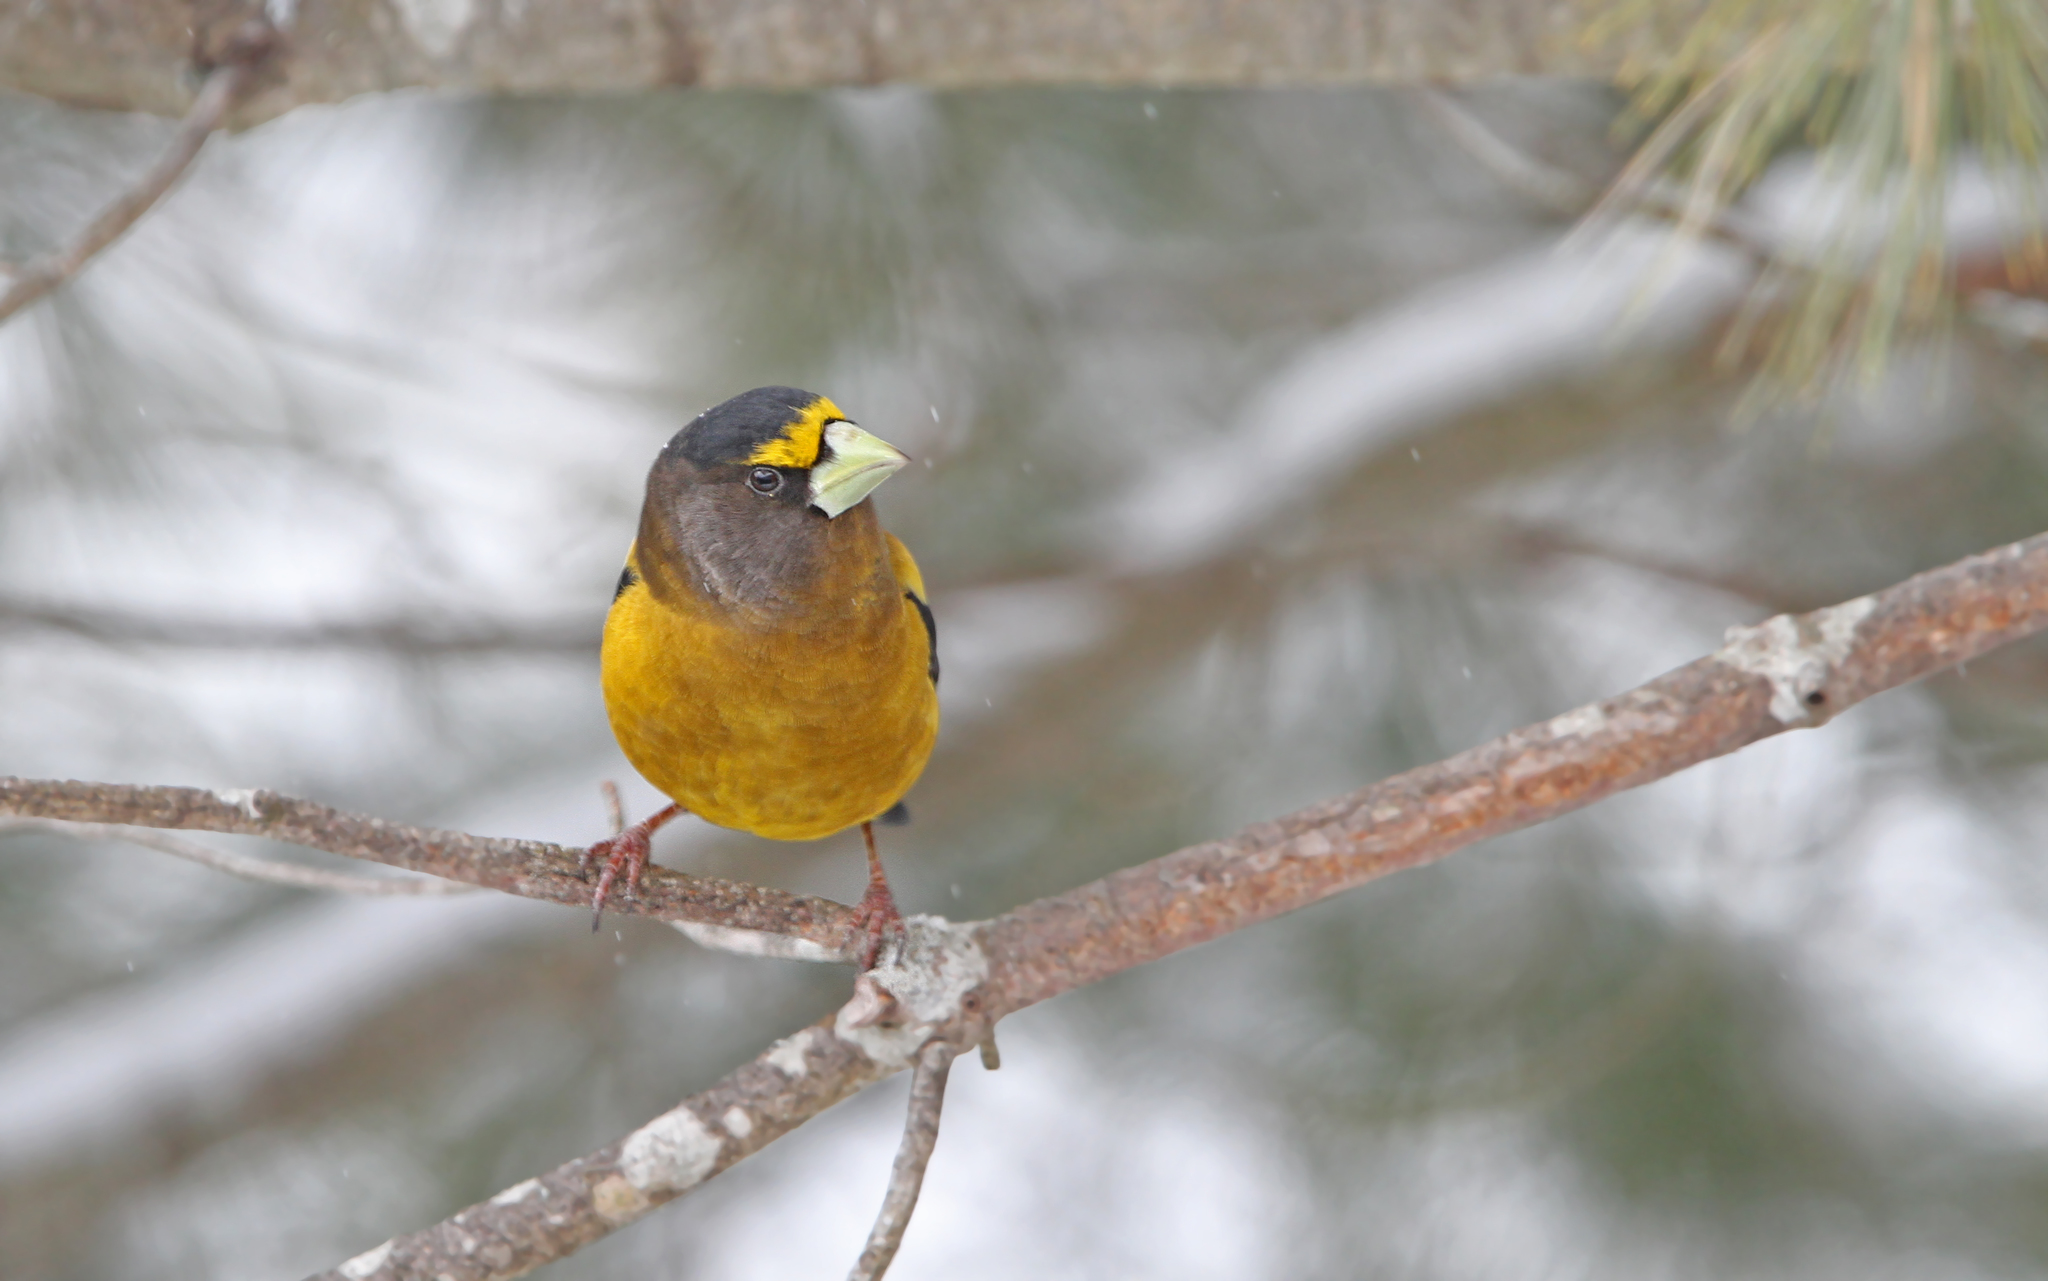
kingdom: Animalia
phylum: Chordata
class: Aves
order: Passeriformes
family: Fringillidae
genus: Hesperiphona
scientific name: Hesperiphona vespertina
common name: Evening grosbeak
